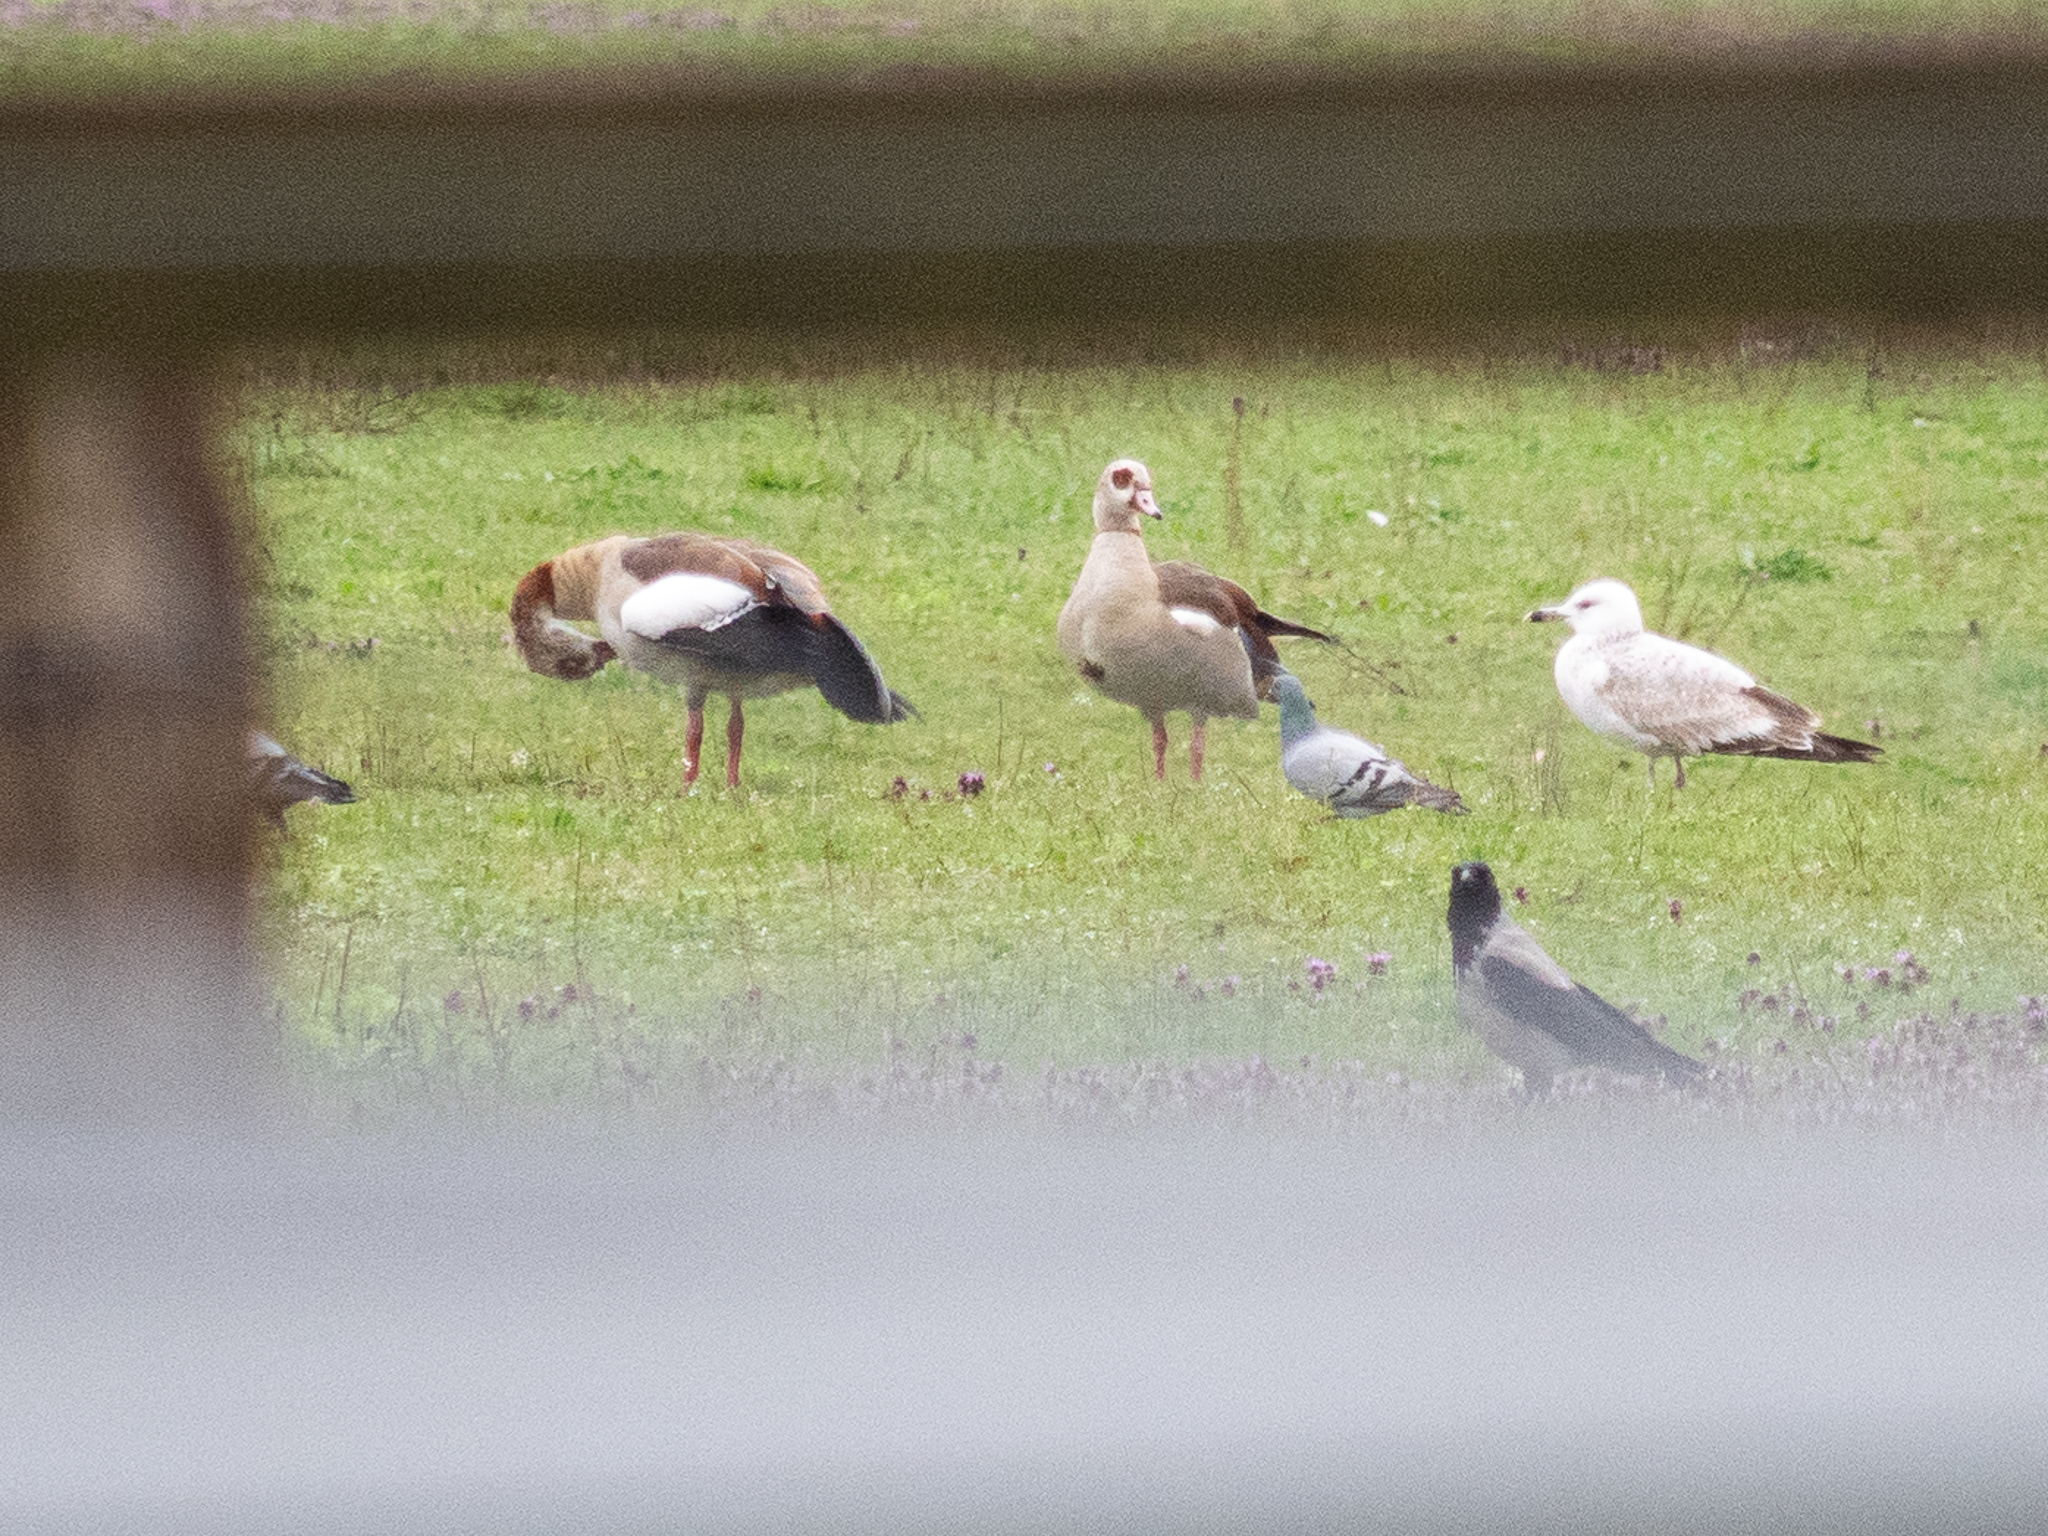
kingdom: Animalia
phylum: Chordata
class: Aves
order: Anseriformes
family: Anatidae
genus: Alopochen
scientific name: Alopochen aegyptiaca
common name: Egyptian goose
